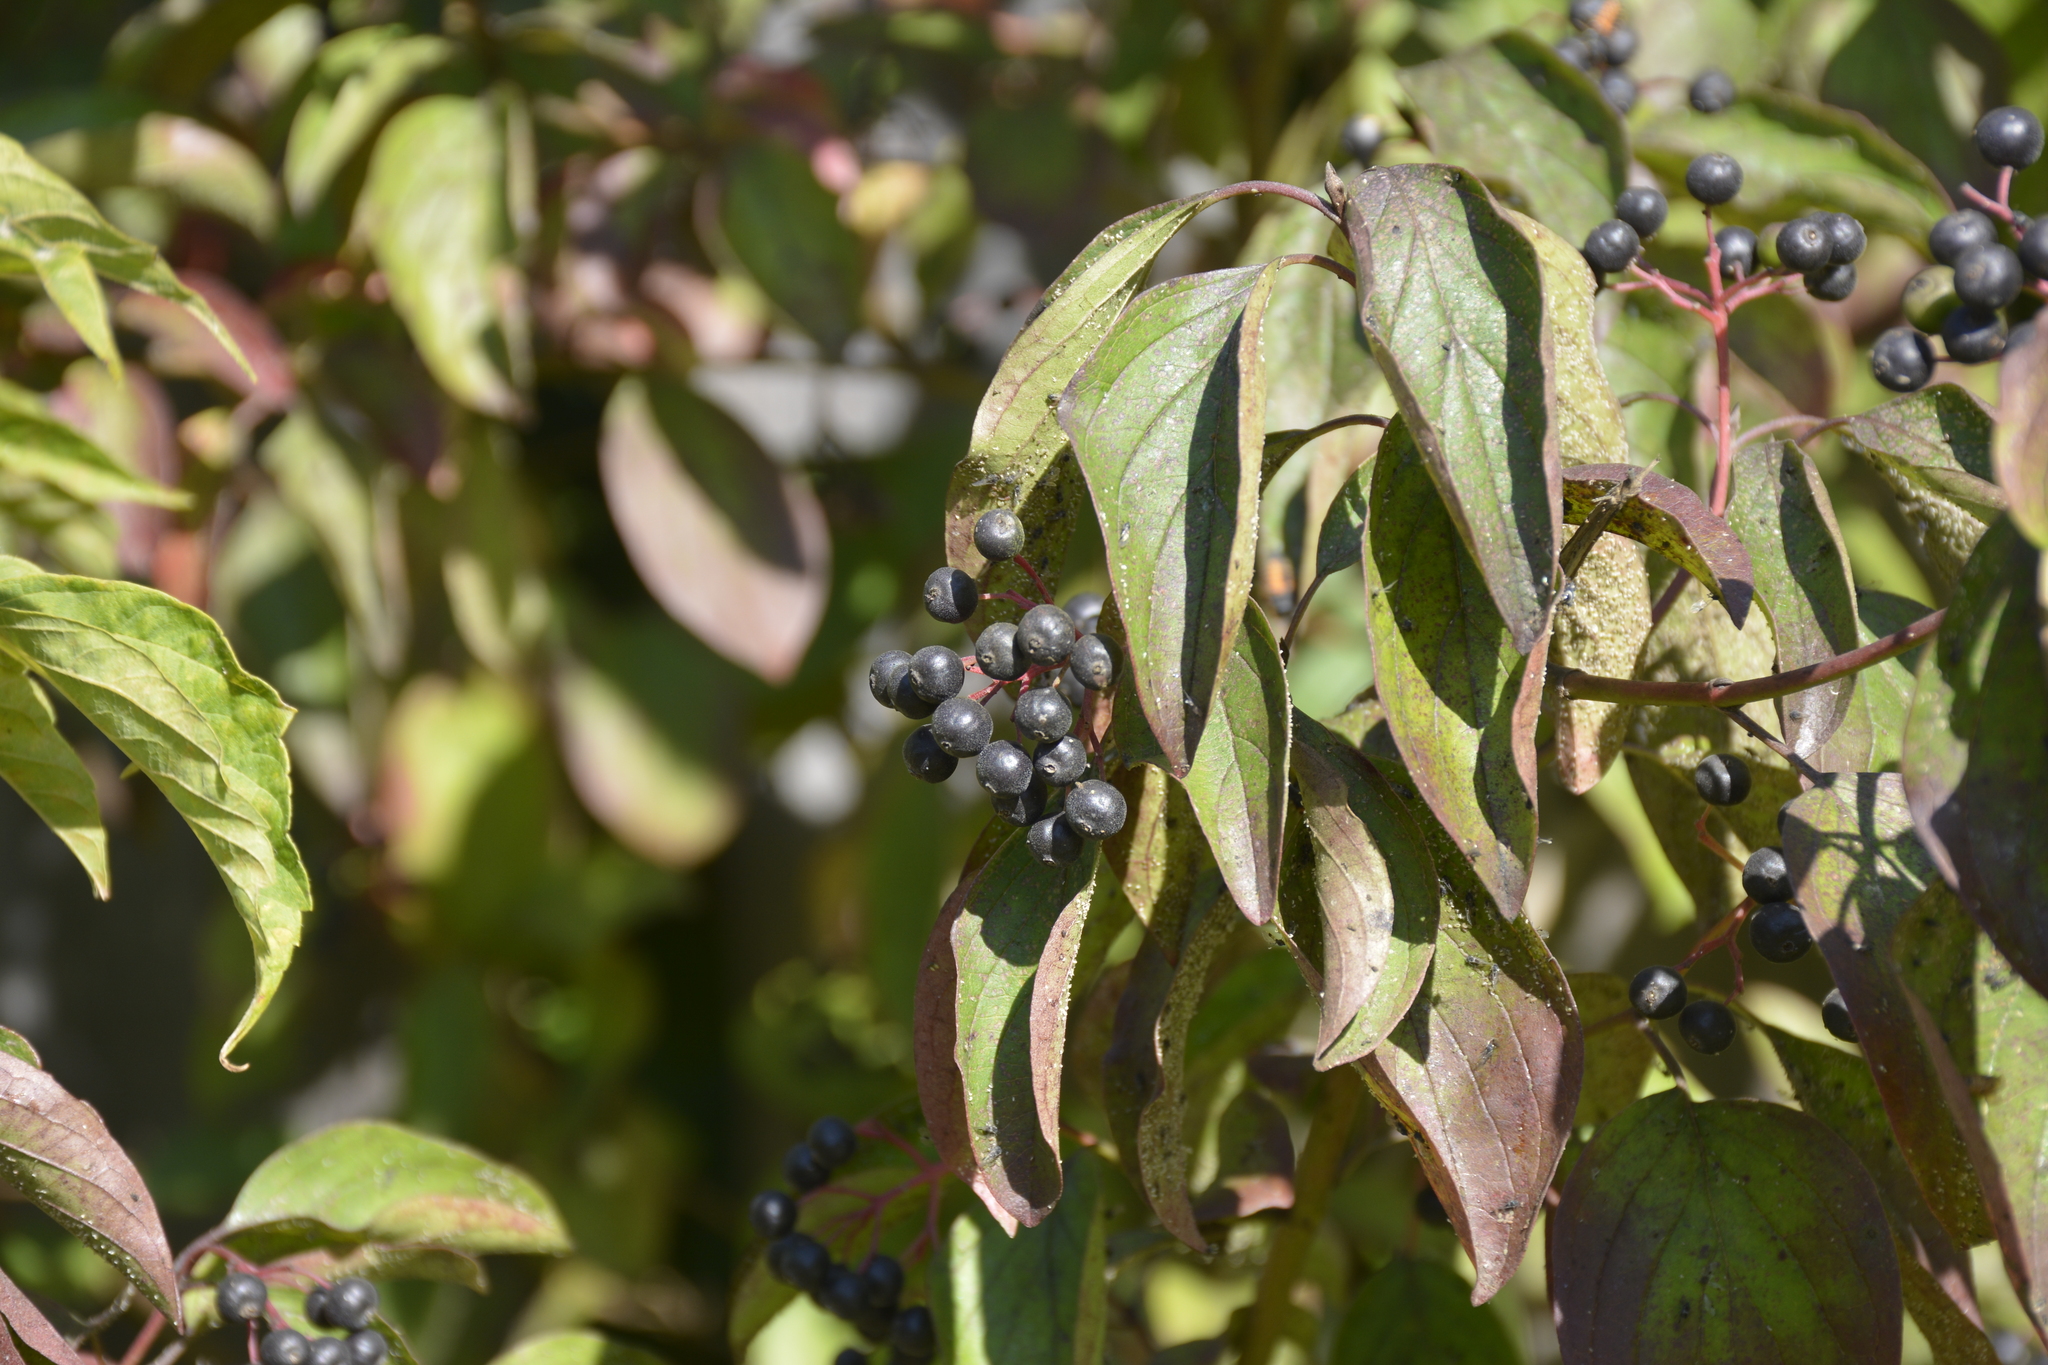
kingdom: Plantae
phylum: Tracheophyta
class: Magnoliopsida
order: Cornales
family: Cornaceae
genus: Cornus
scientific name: Cornus sanguinea
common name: Dogwood
